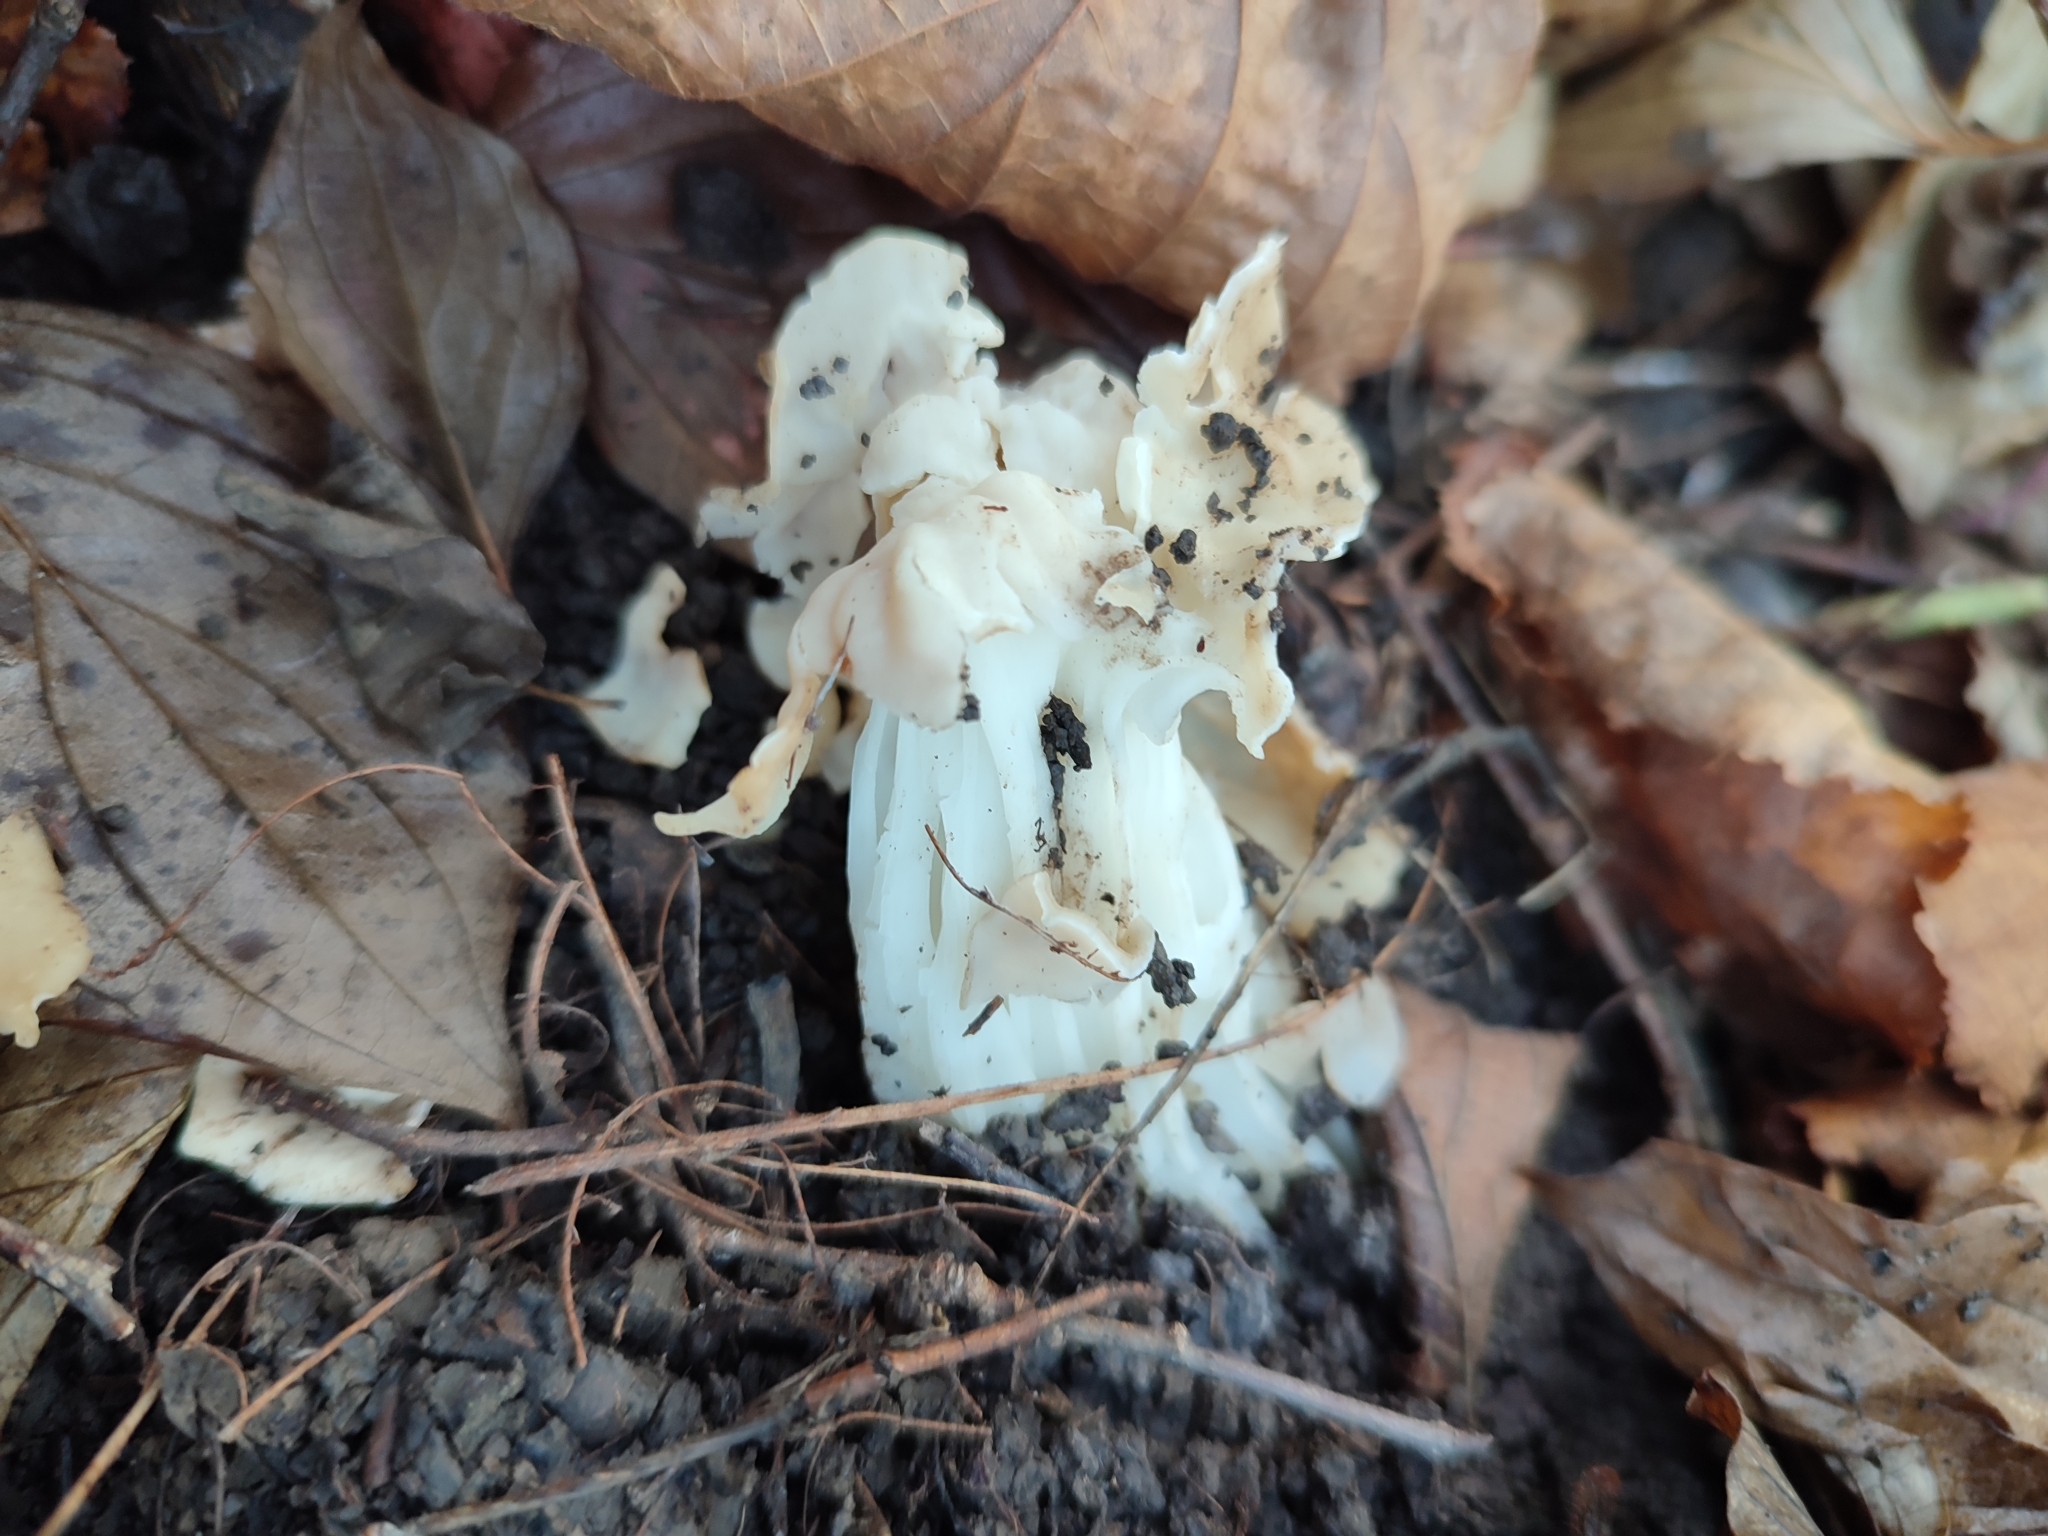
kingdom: Fungi
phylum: Ascomycota
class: Pezizomycetes
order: Pezizales
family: Helvellaceae
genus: Helvella
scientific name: Helvella crispa
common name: White saddle
